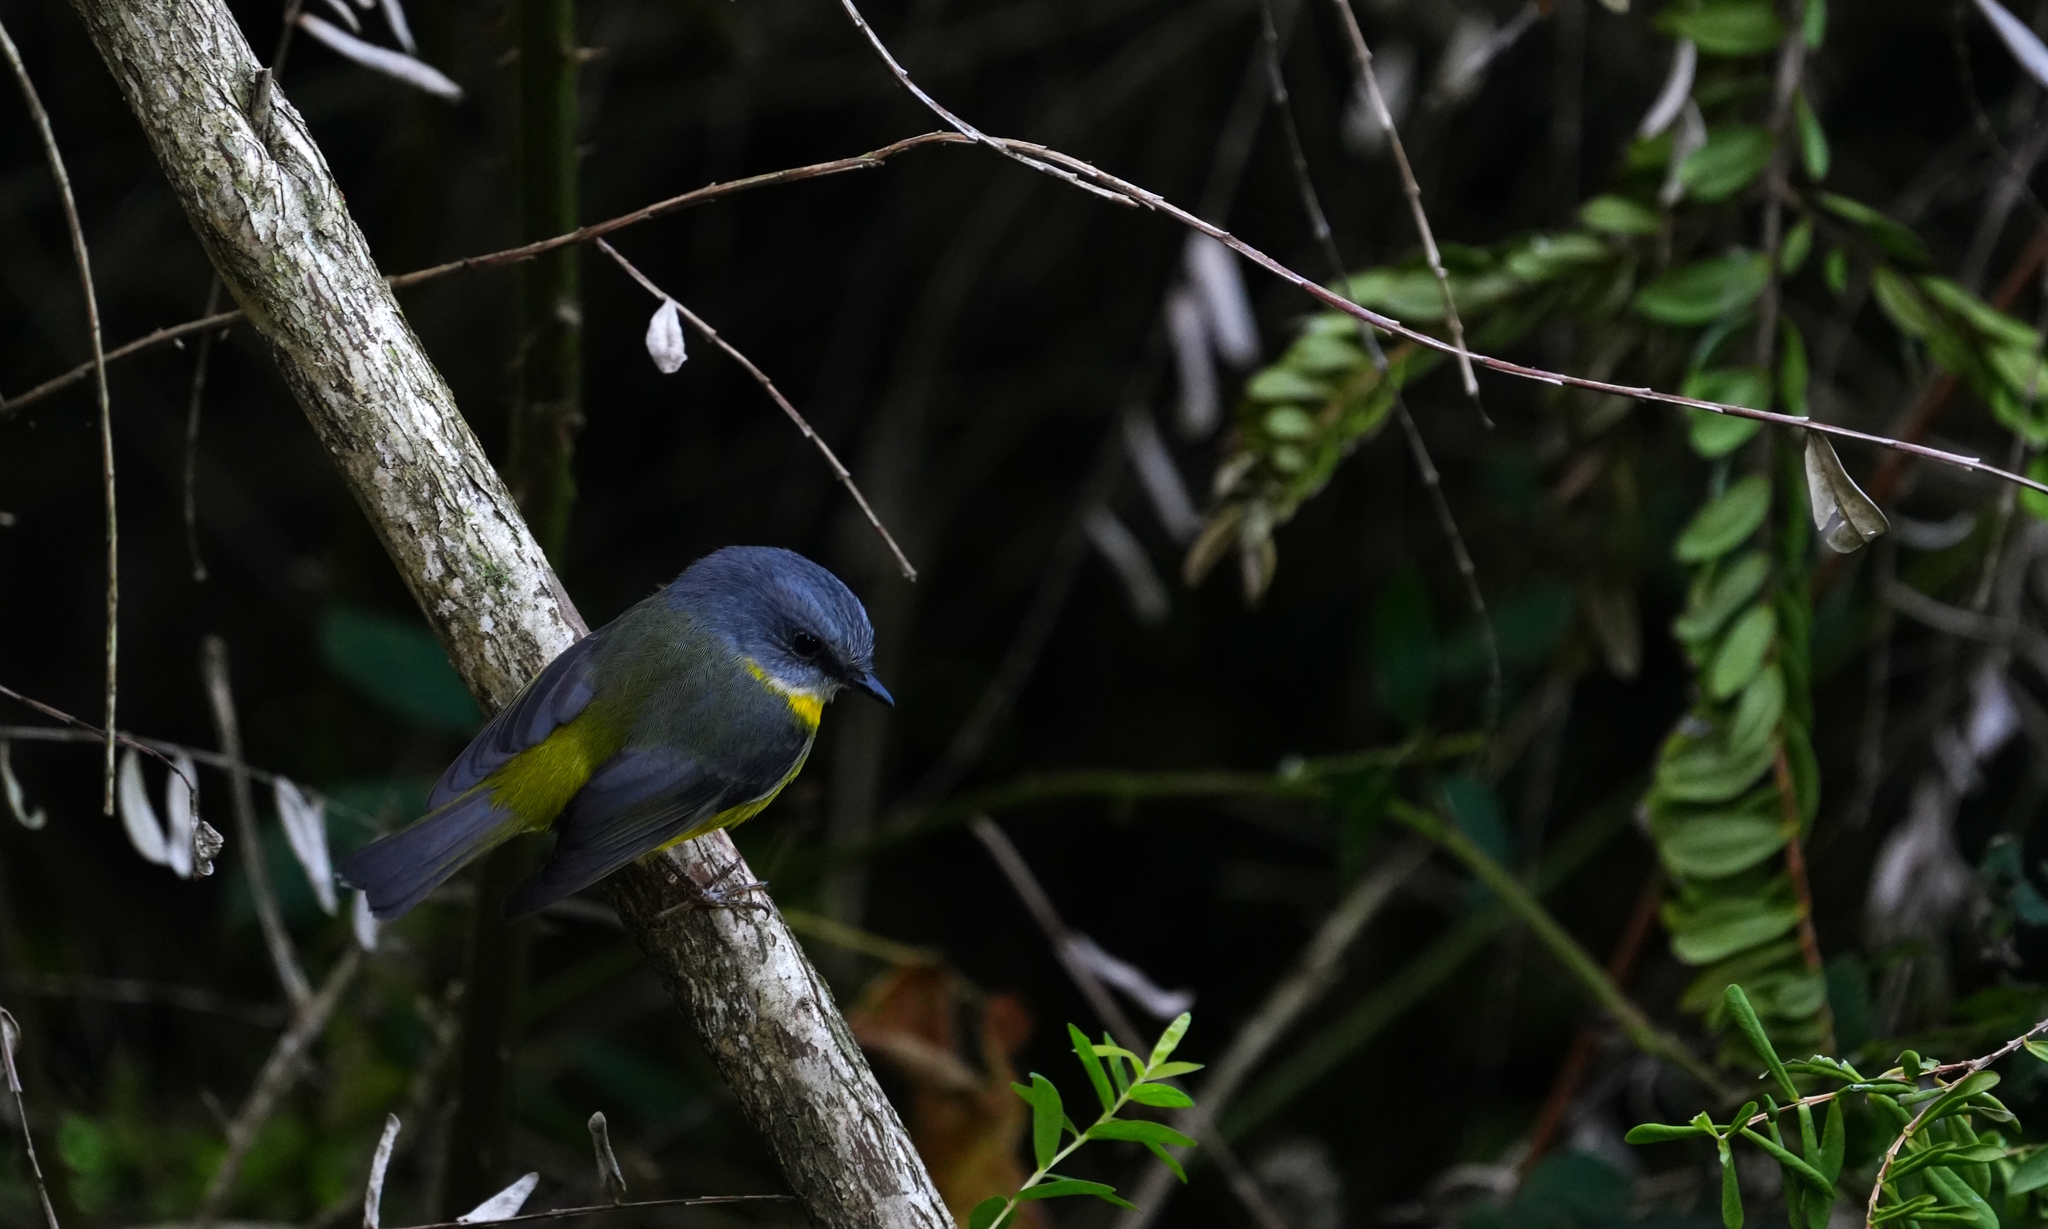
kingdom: Animalia
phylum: Chordata
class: Aves
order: Passeriformes
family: Petroicidae
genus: Eopsaltria
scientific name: Eopsaltria australis
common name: Eastern yellow robin
